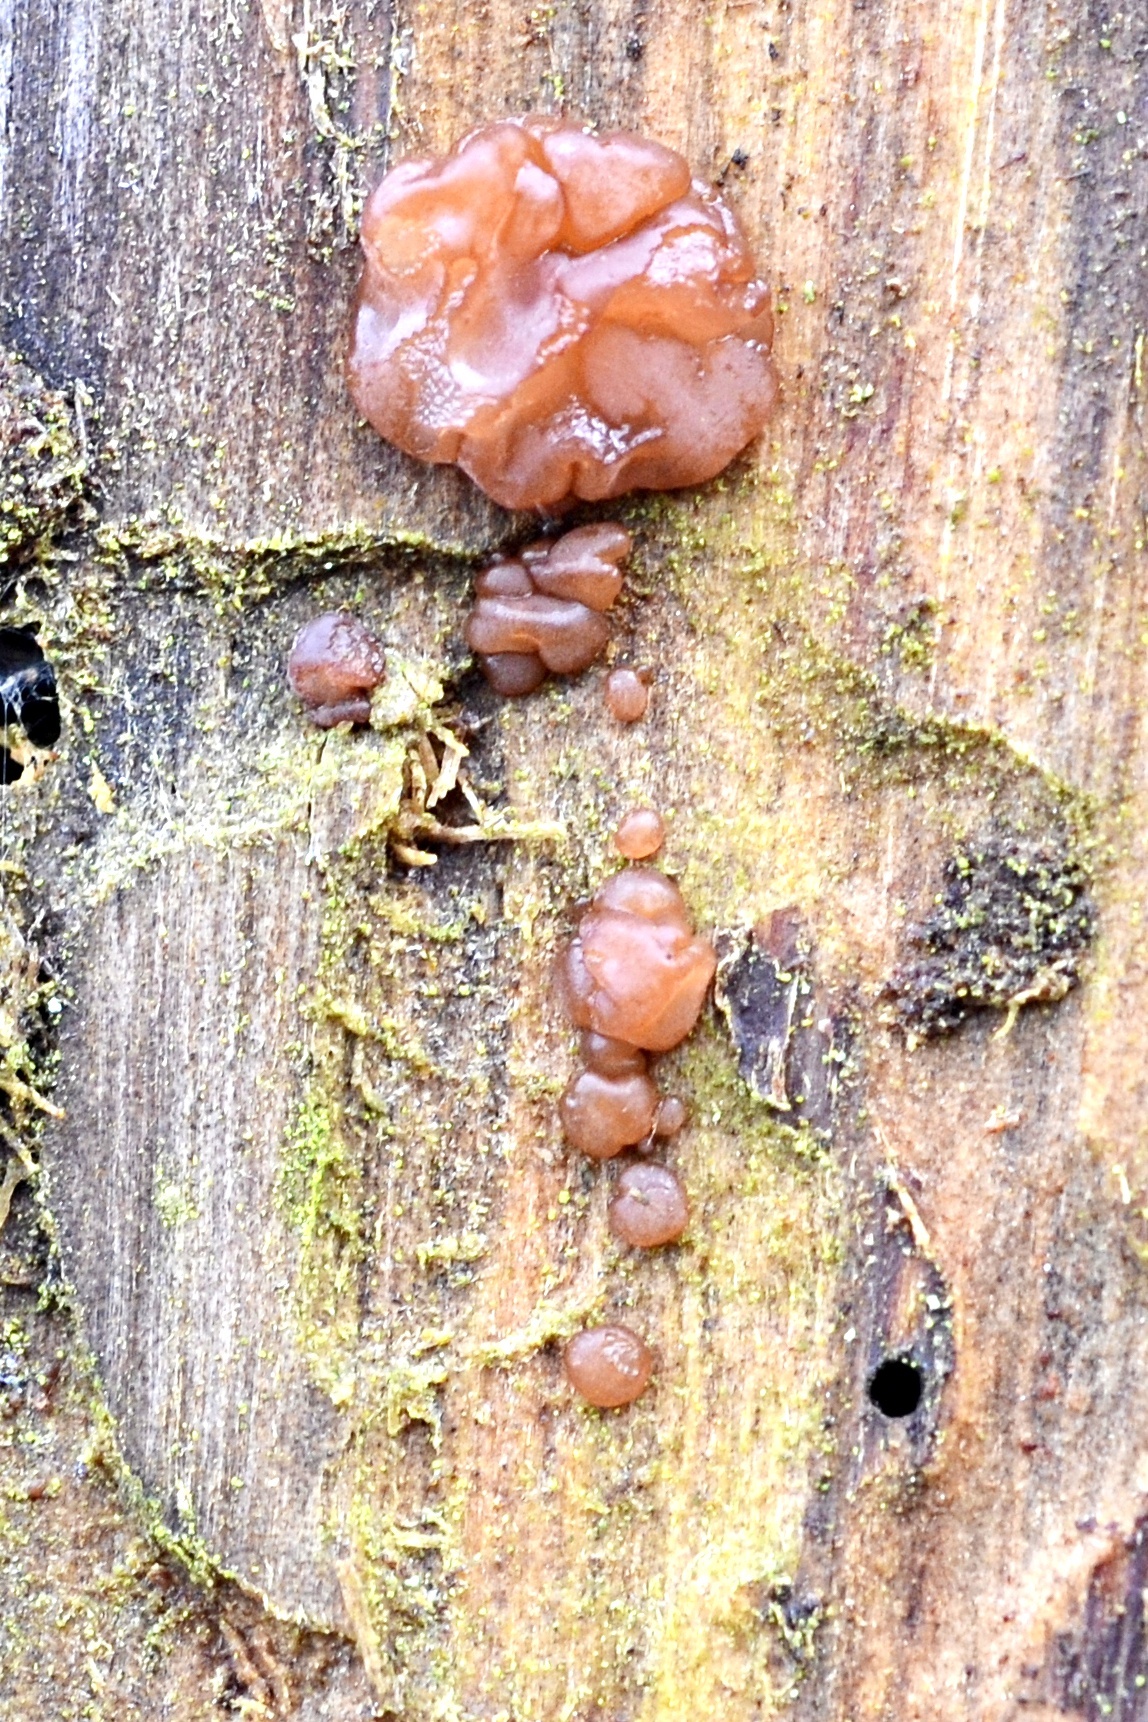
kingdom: Fungi
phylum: Basidiomycota
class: Agaricomycetes
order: Auriculariales
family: Auriculariaceae
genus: Exidia
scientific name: Exidia saccharina
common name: Pine jelly
